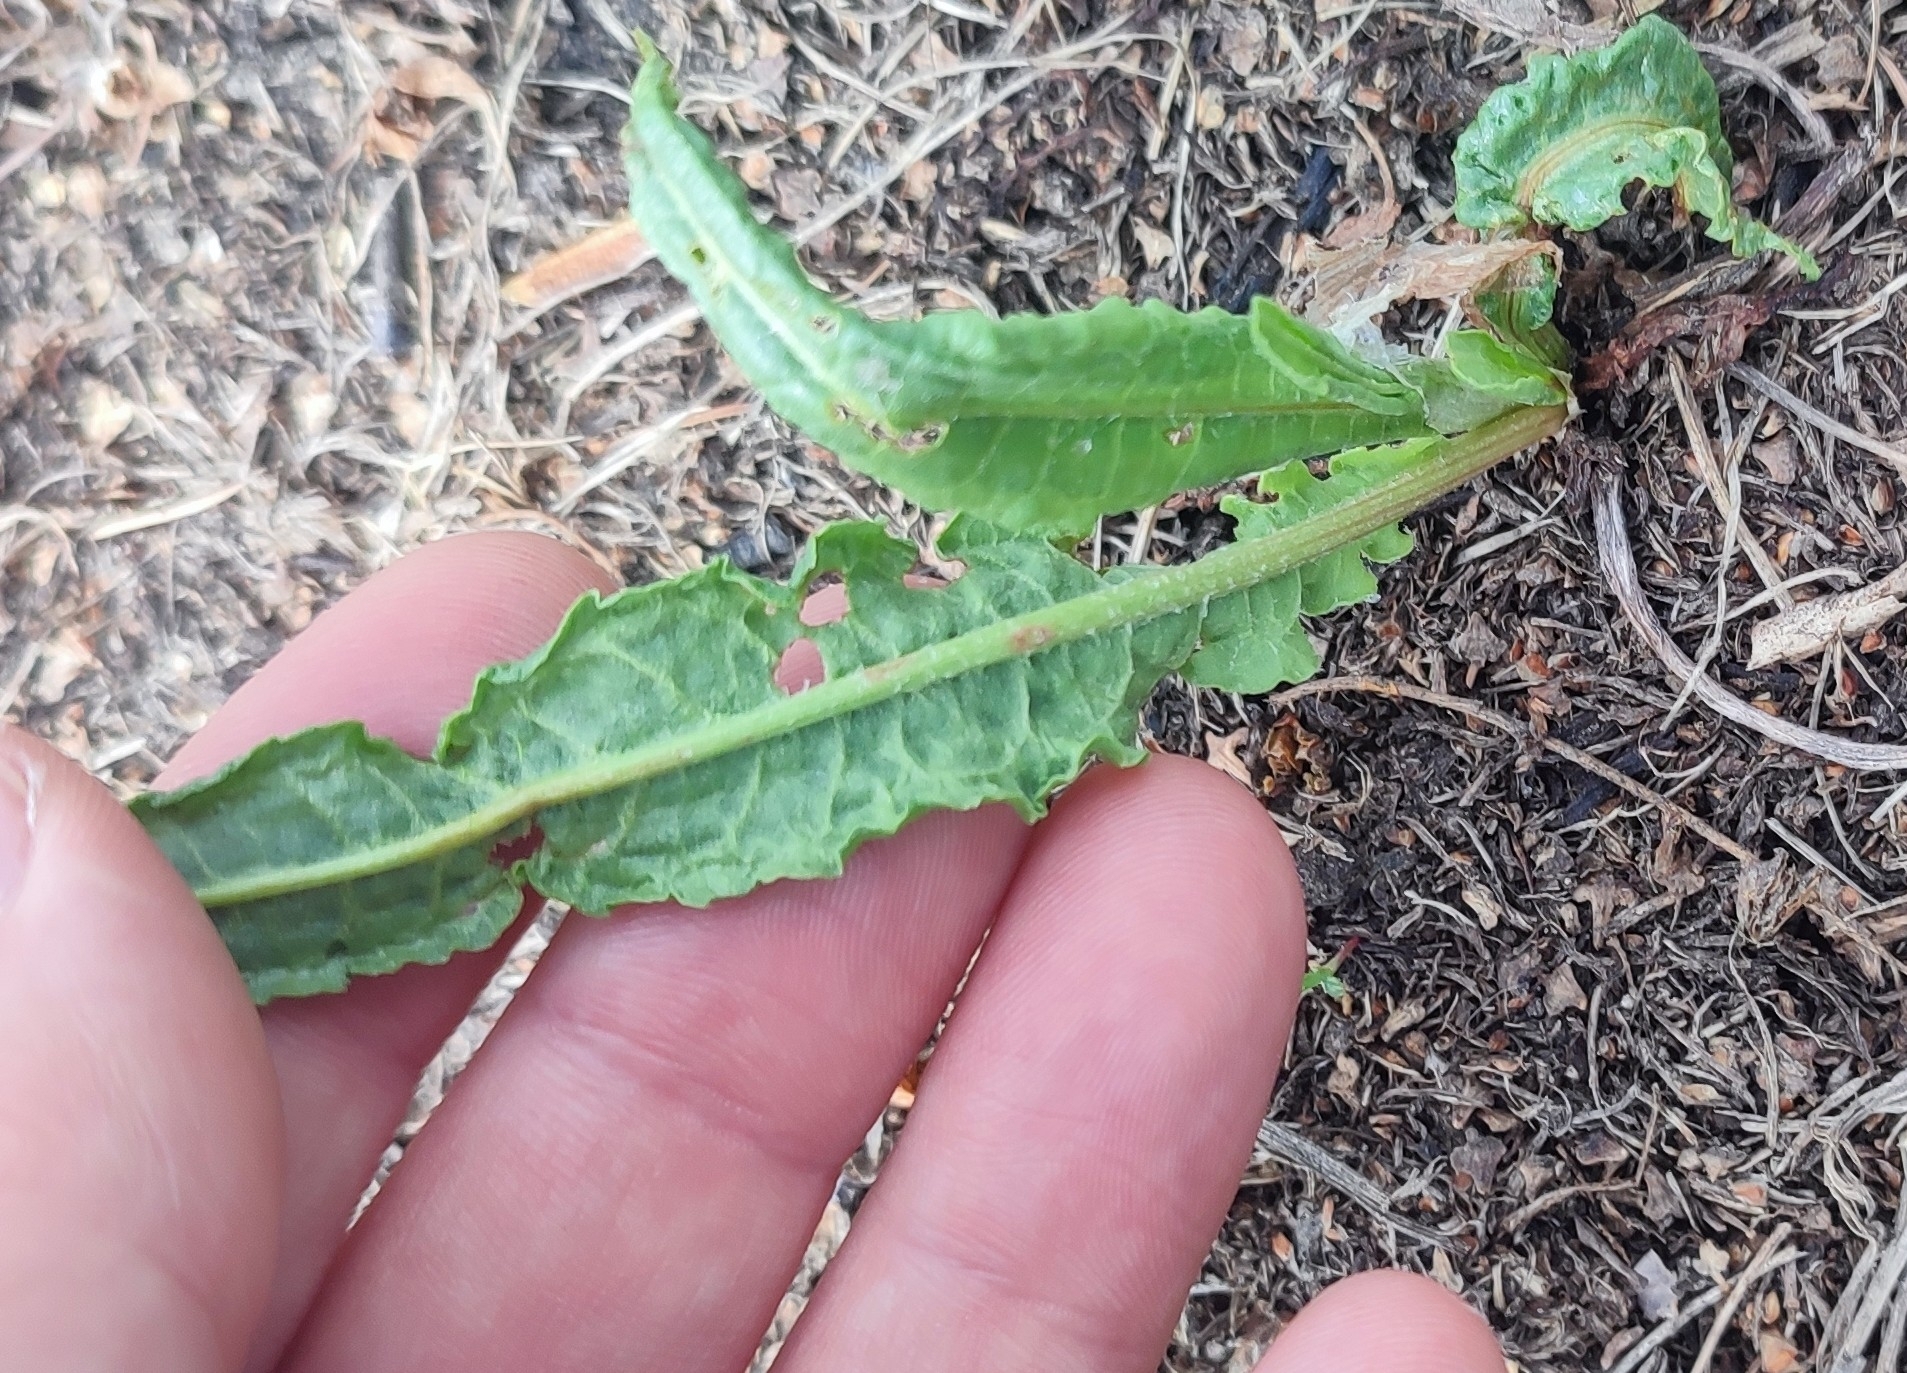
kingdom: Plantae
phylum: Tracheophyta
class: Magnoliopsida
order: Caryophyllales
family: Polygonaceae
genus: Rumex
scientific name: Rumex pseudonatronatus
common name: Field dock
